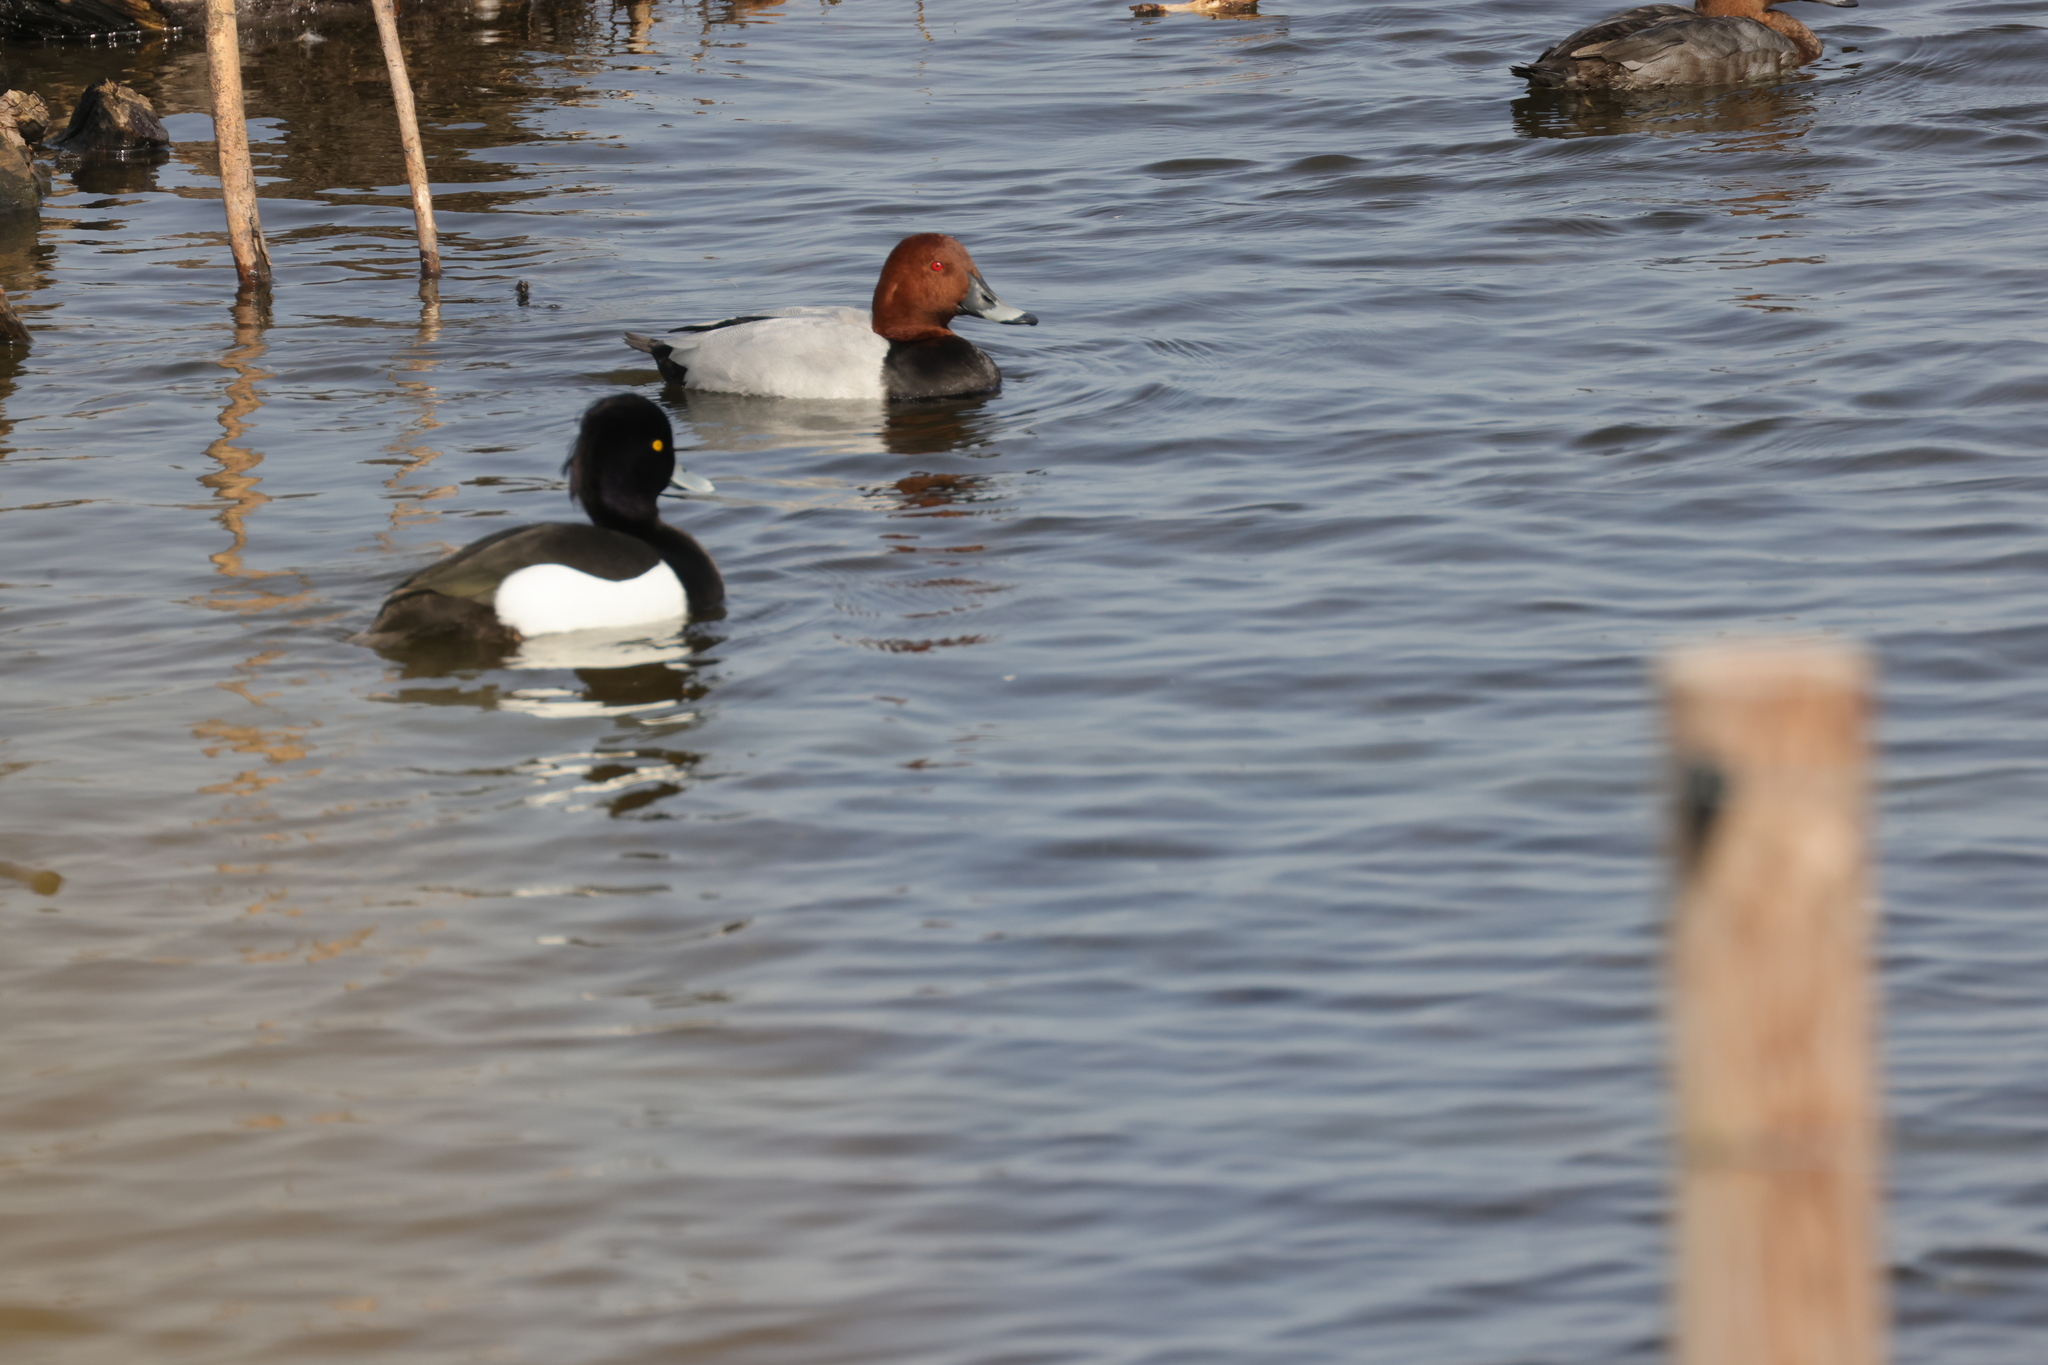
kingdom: Animalia
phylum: Chordata
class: Aves
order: Anseriformes
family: Anatidae
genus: Aythya
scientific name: Aythya ferina
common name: Common pochard
